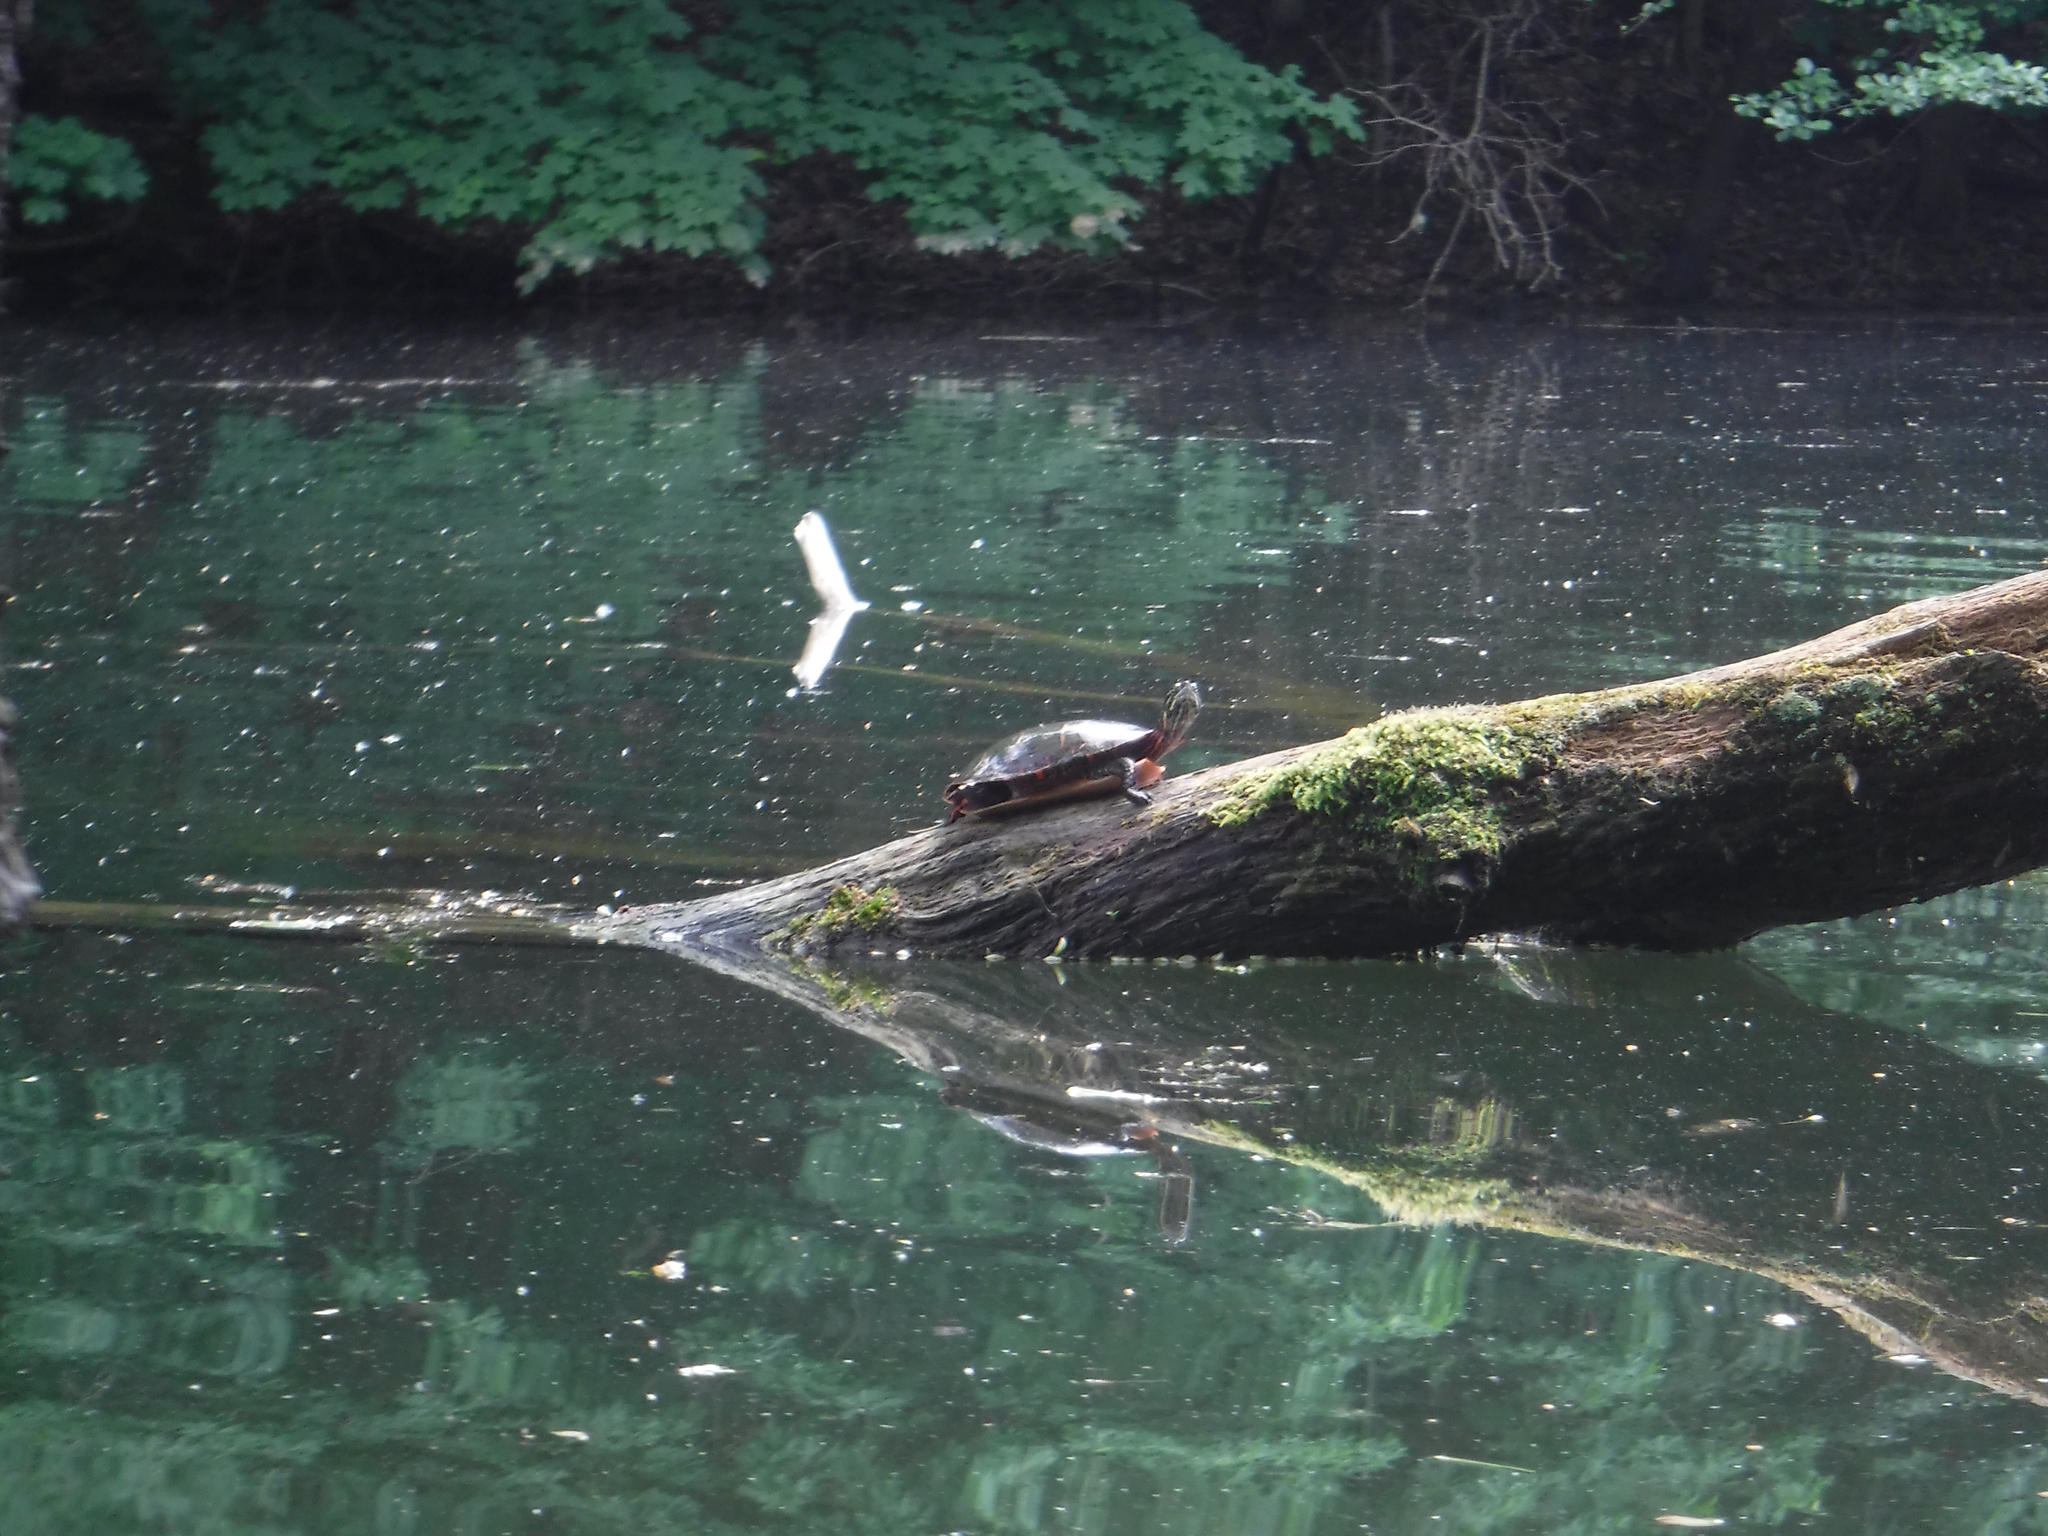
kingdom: Animalia
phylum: Chordata
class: Testudines
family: Emydidae
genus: Chrysemys
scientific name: Chrysemys picta
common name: Painted turtle
